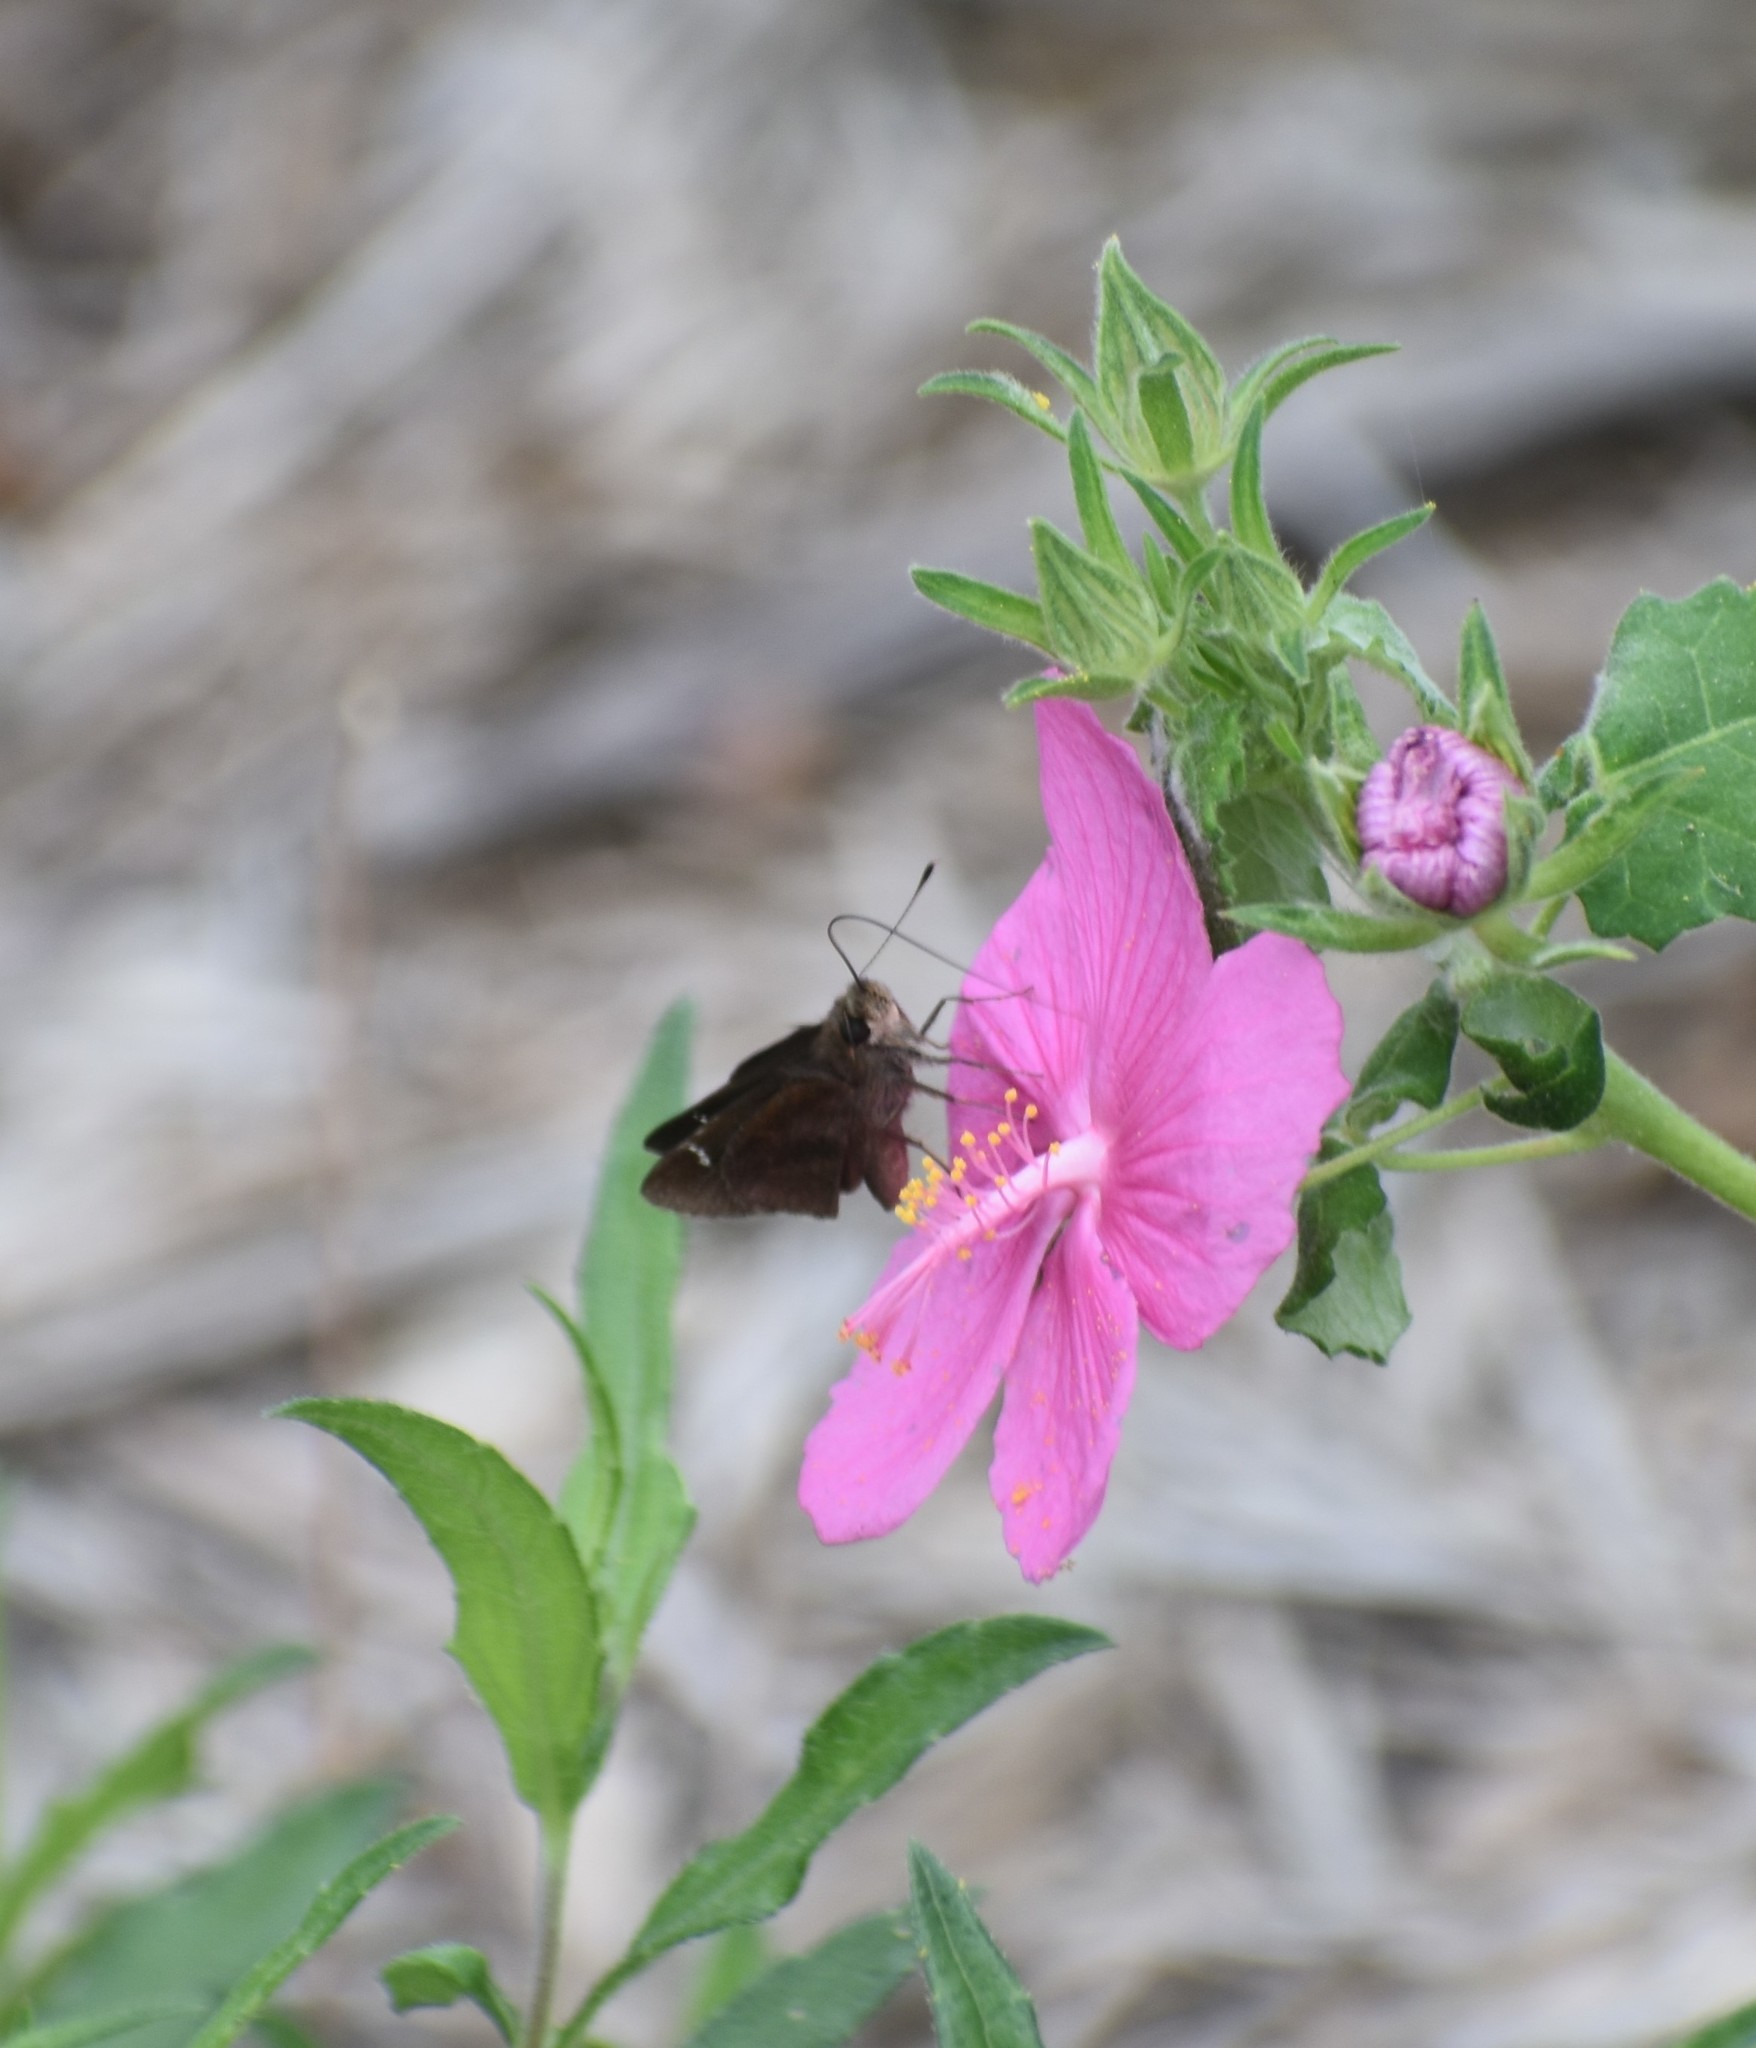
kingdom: Animalia
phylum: Arthropoda
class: Insecta
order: Lepidoptera
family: Hesperiidae
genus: Lerema
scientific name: Lerema accius
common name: Clouded skipper
